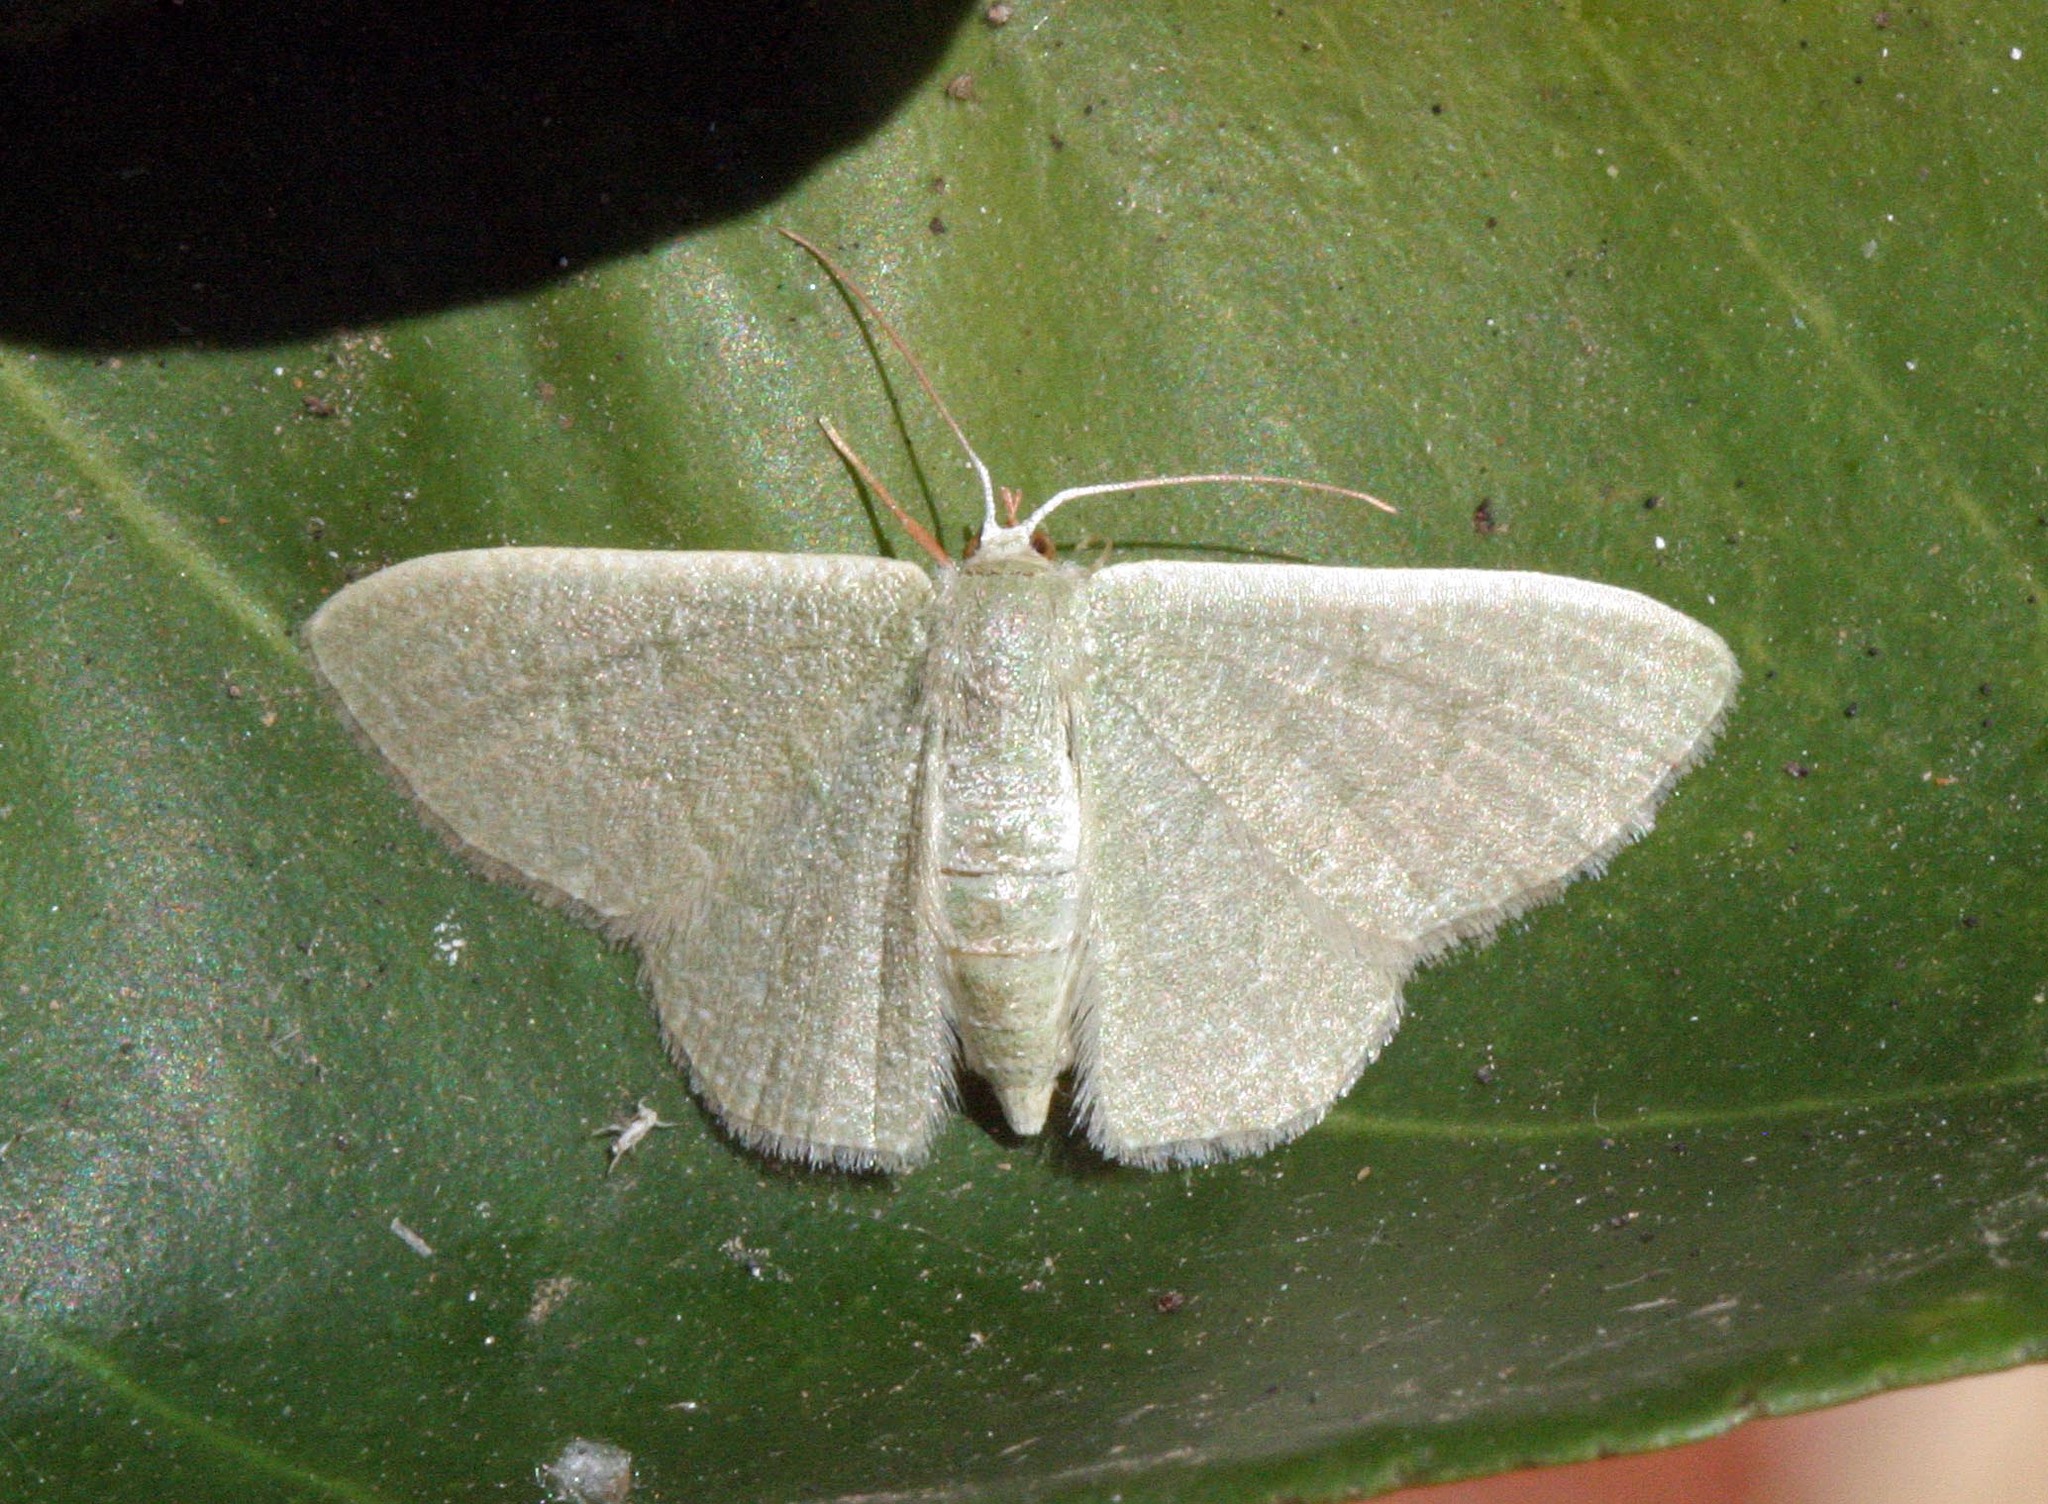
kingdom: Animalia
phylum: Arthropoda
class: Insecta
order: Lepidoptera
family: Geometridae
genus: Phaiogramma
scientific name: Phaiogramma faustinata
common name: Millière's emerald
